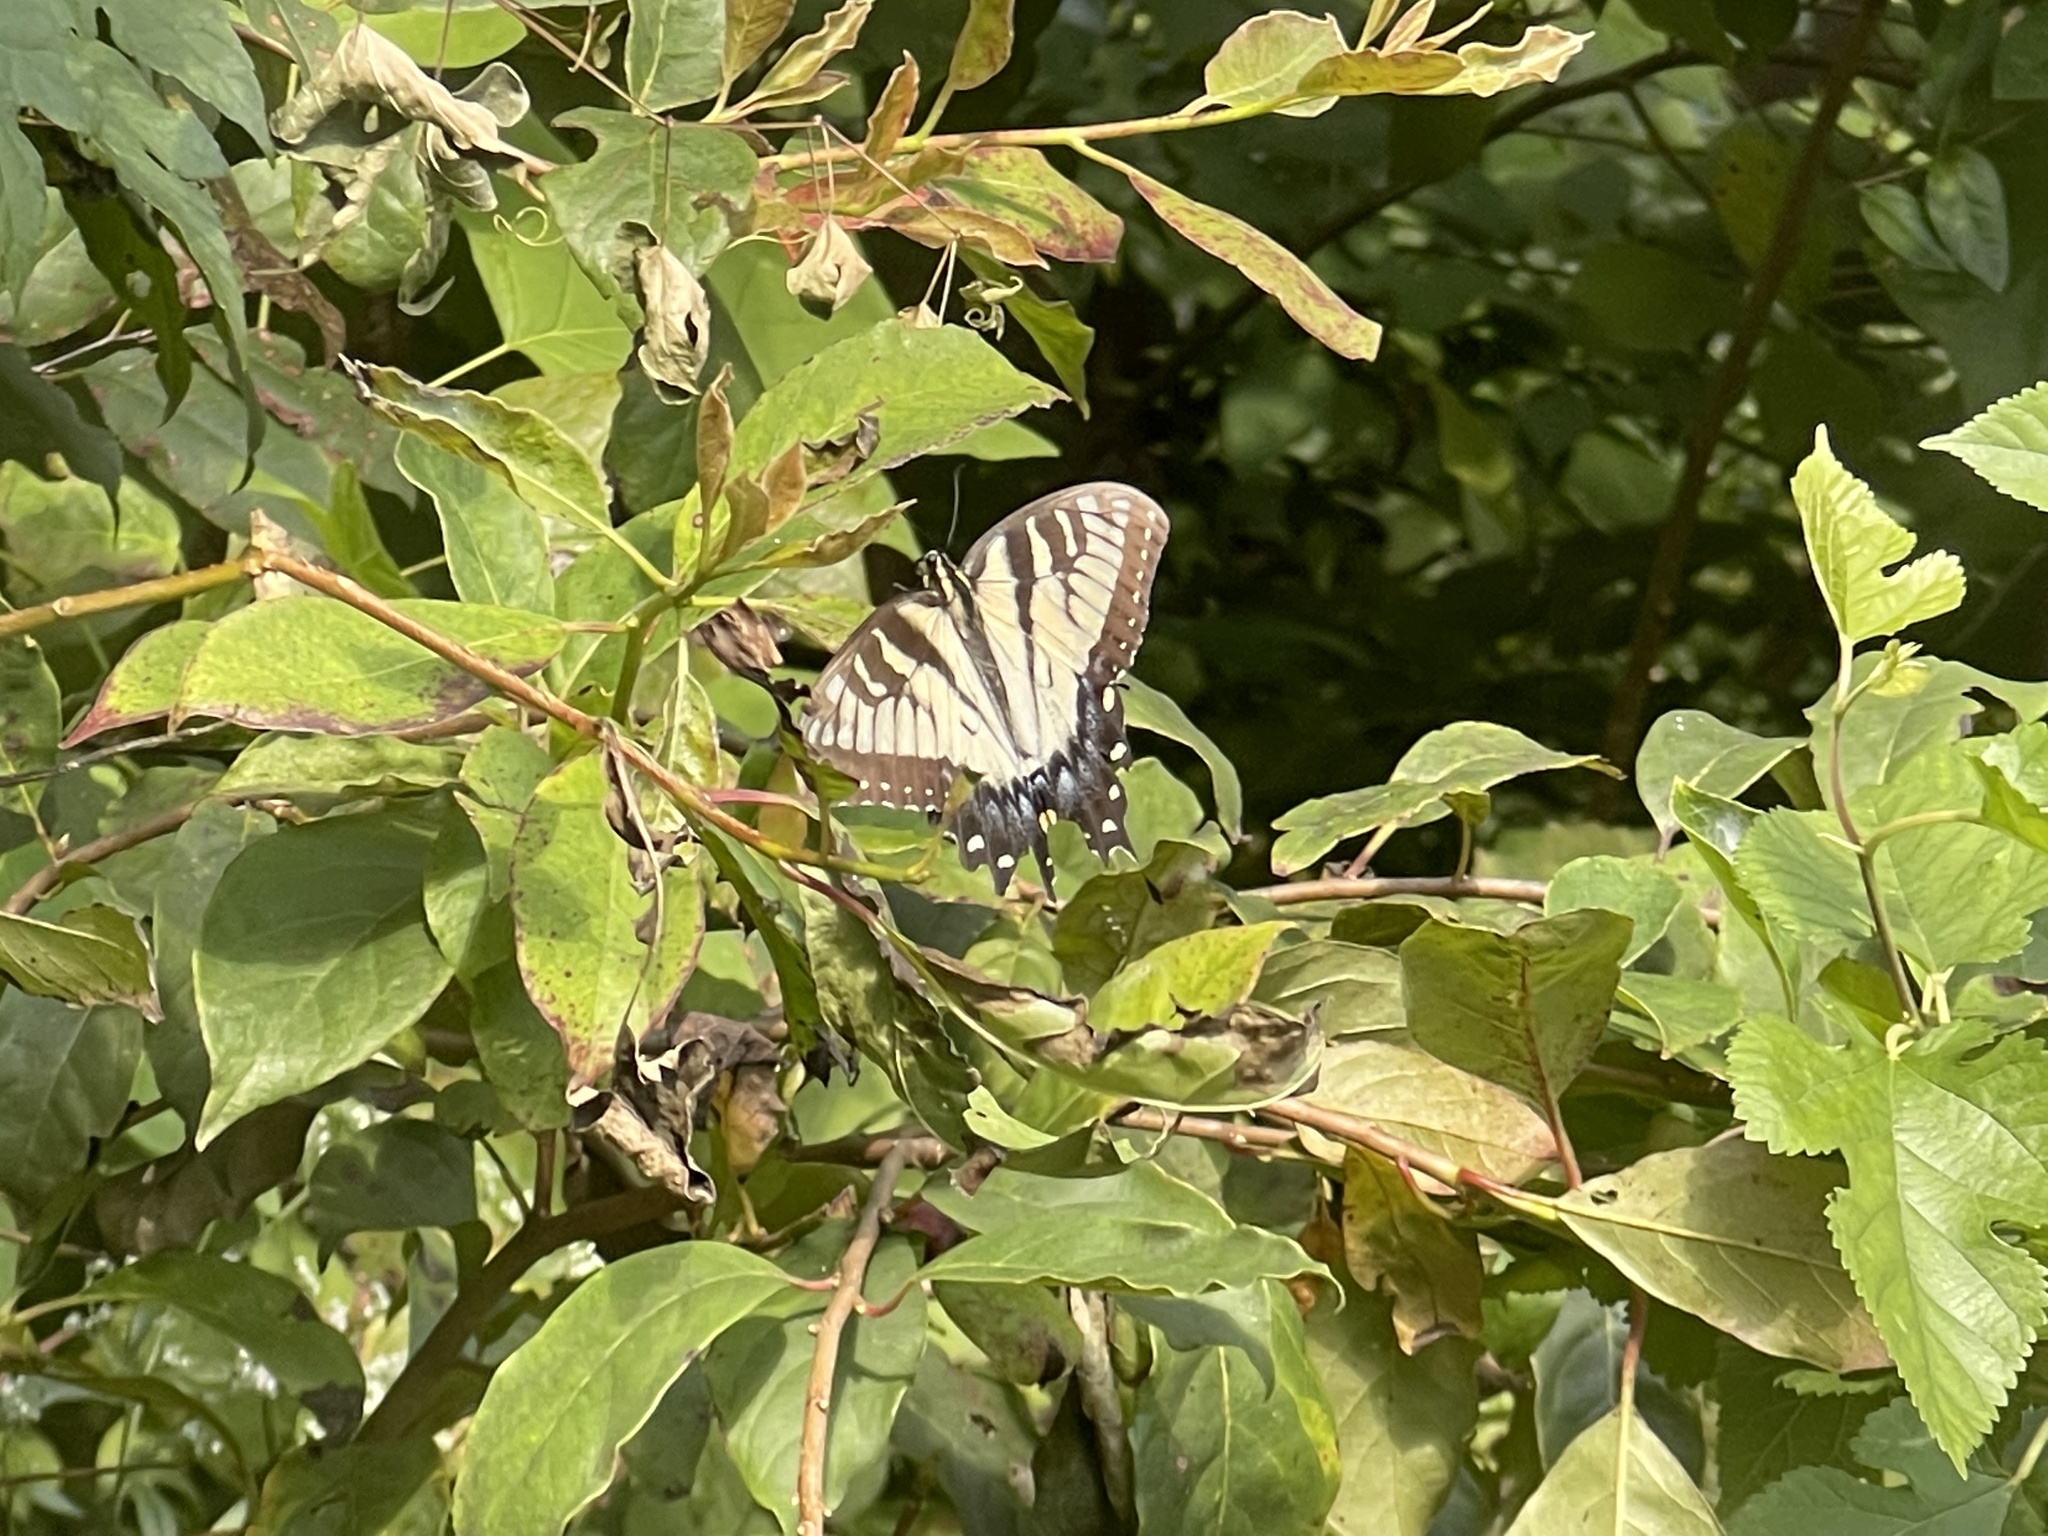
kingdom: Animalia
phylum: Arthropoda
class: Insecta
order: Lepidoptera
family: Papilionidae
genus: Papilio
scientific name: Papilio glaucus
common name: Tiger swallowtail
